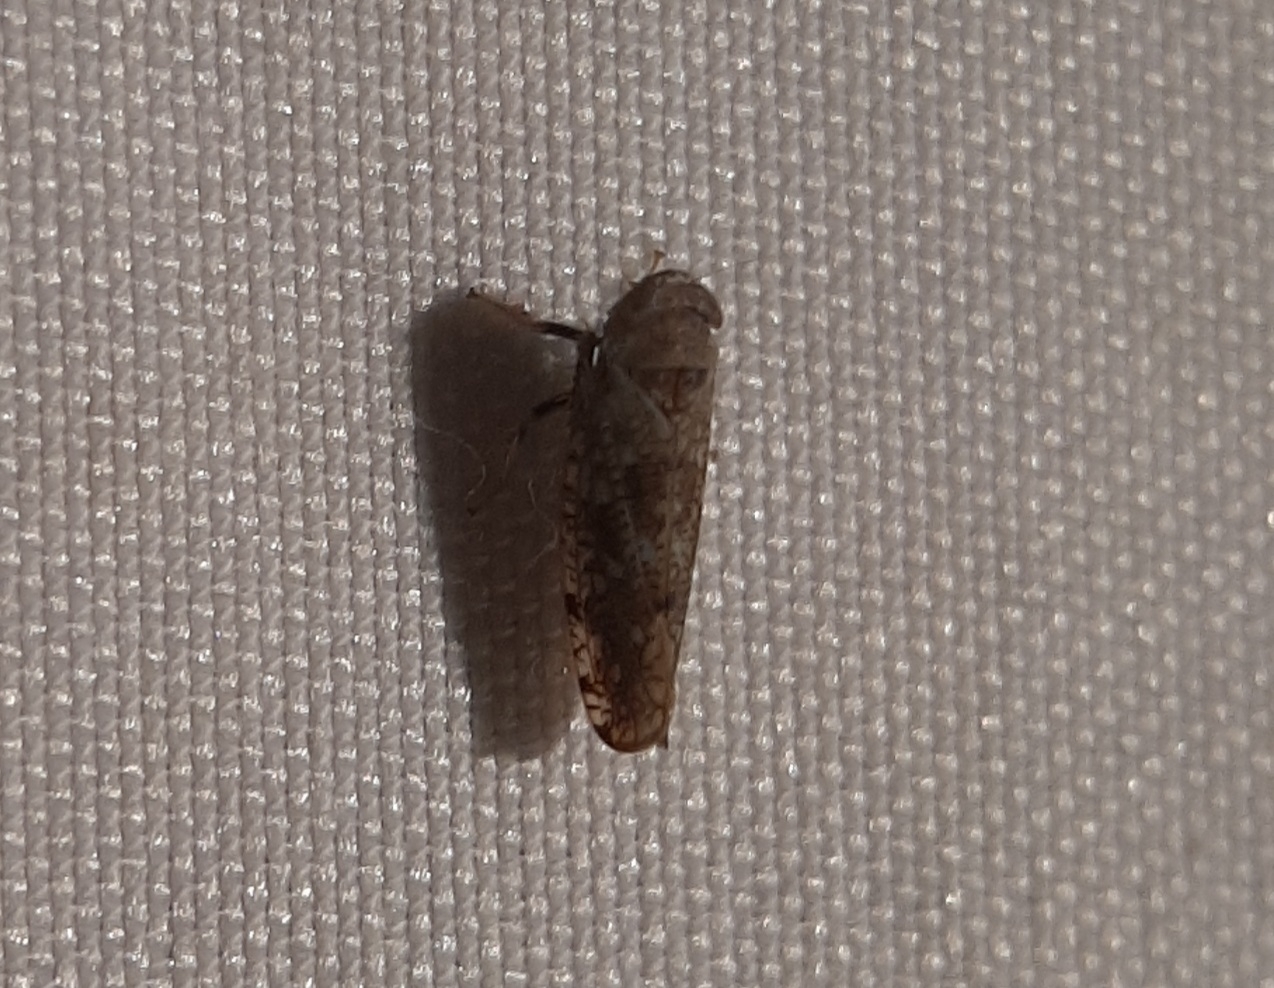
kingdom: Animalia
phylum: Arthropoda
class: Insecta
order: Hemiptera
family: Cicadellidae
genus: Orientus
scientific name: Orientus ishidae
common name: Japanese leafhopper
